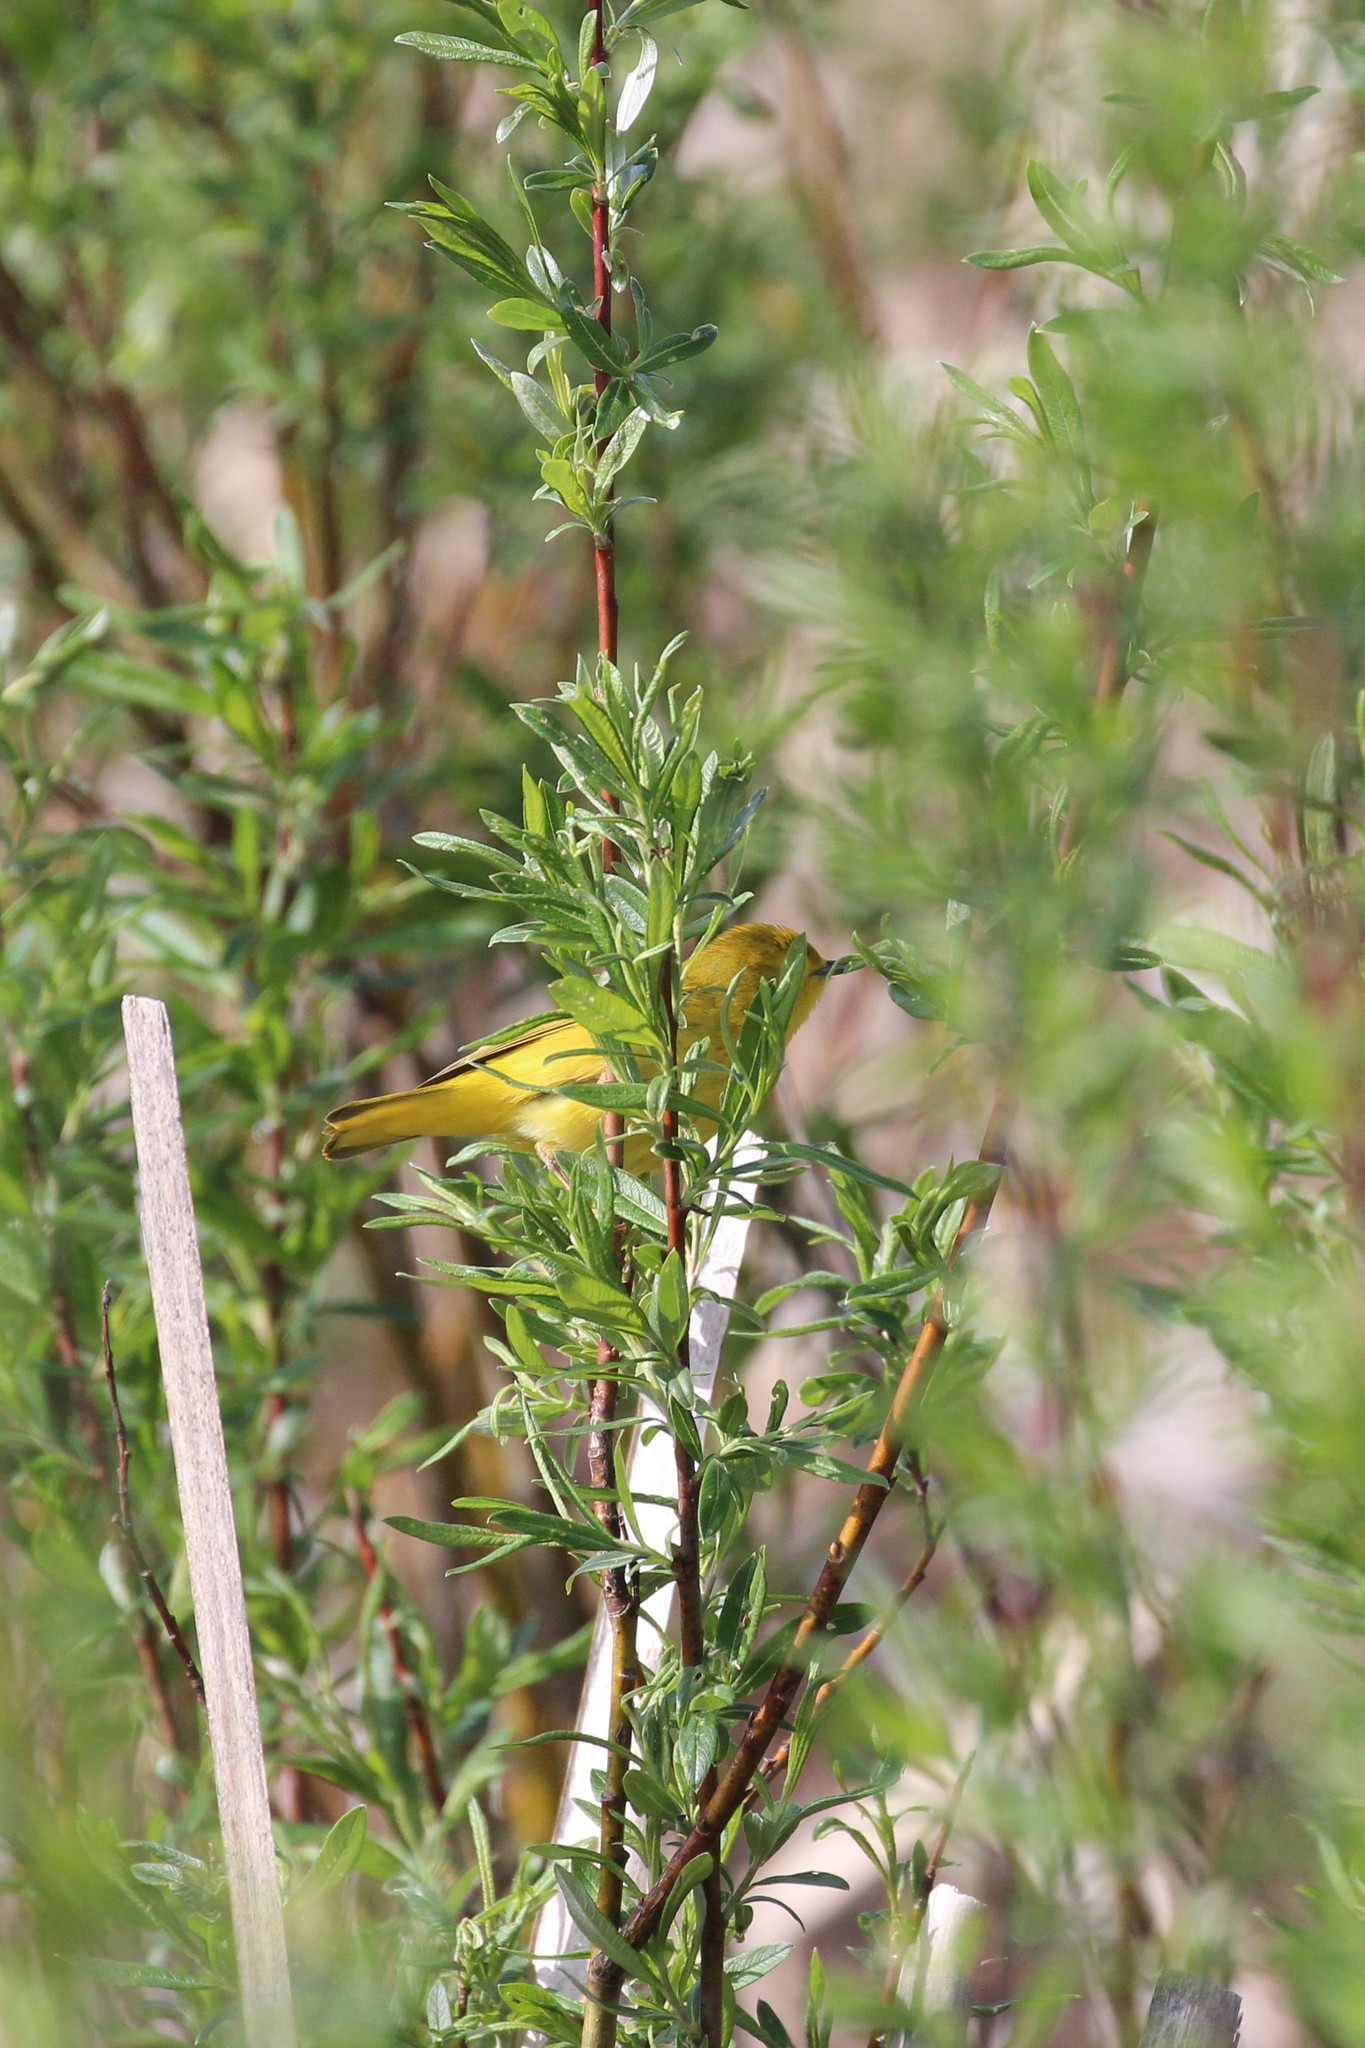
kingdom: Animalia
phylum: Chordata
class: Aves
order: Passeriformes
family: Parulidae
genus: Setophaga
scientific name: Setophaga petechia
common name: Yellow warbler
